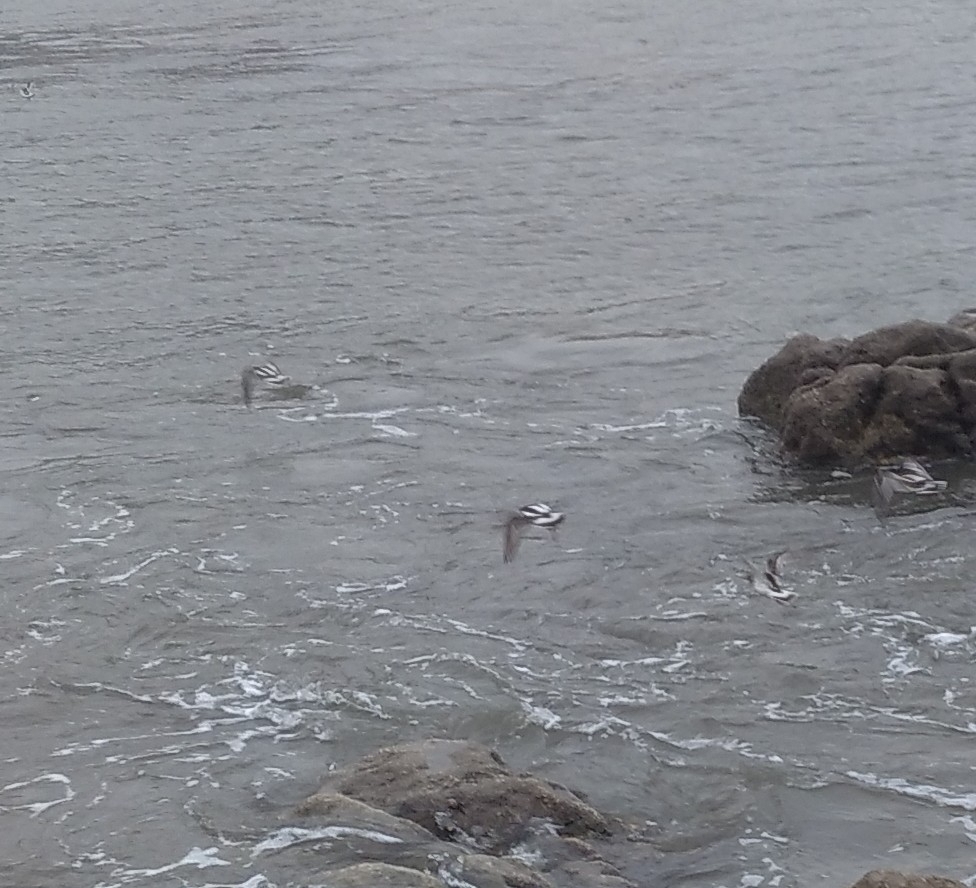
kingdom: Animalia
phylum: Chordata
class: Aves
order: Charadriiformes
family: Scolopacidae
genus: Arenaria
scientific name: Arenaria interpres
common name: Ruddy turnstone
